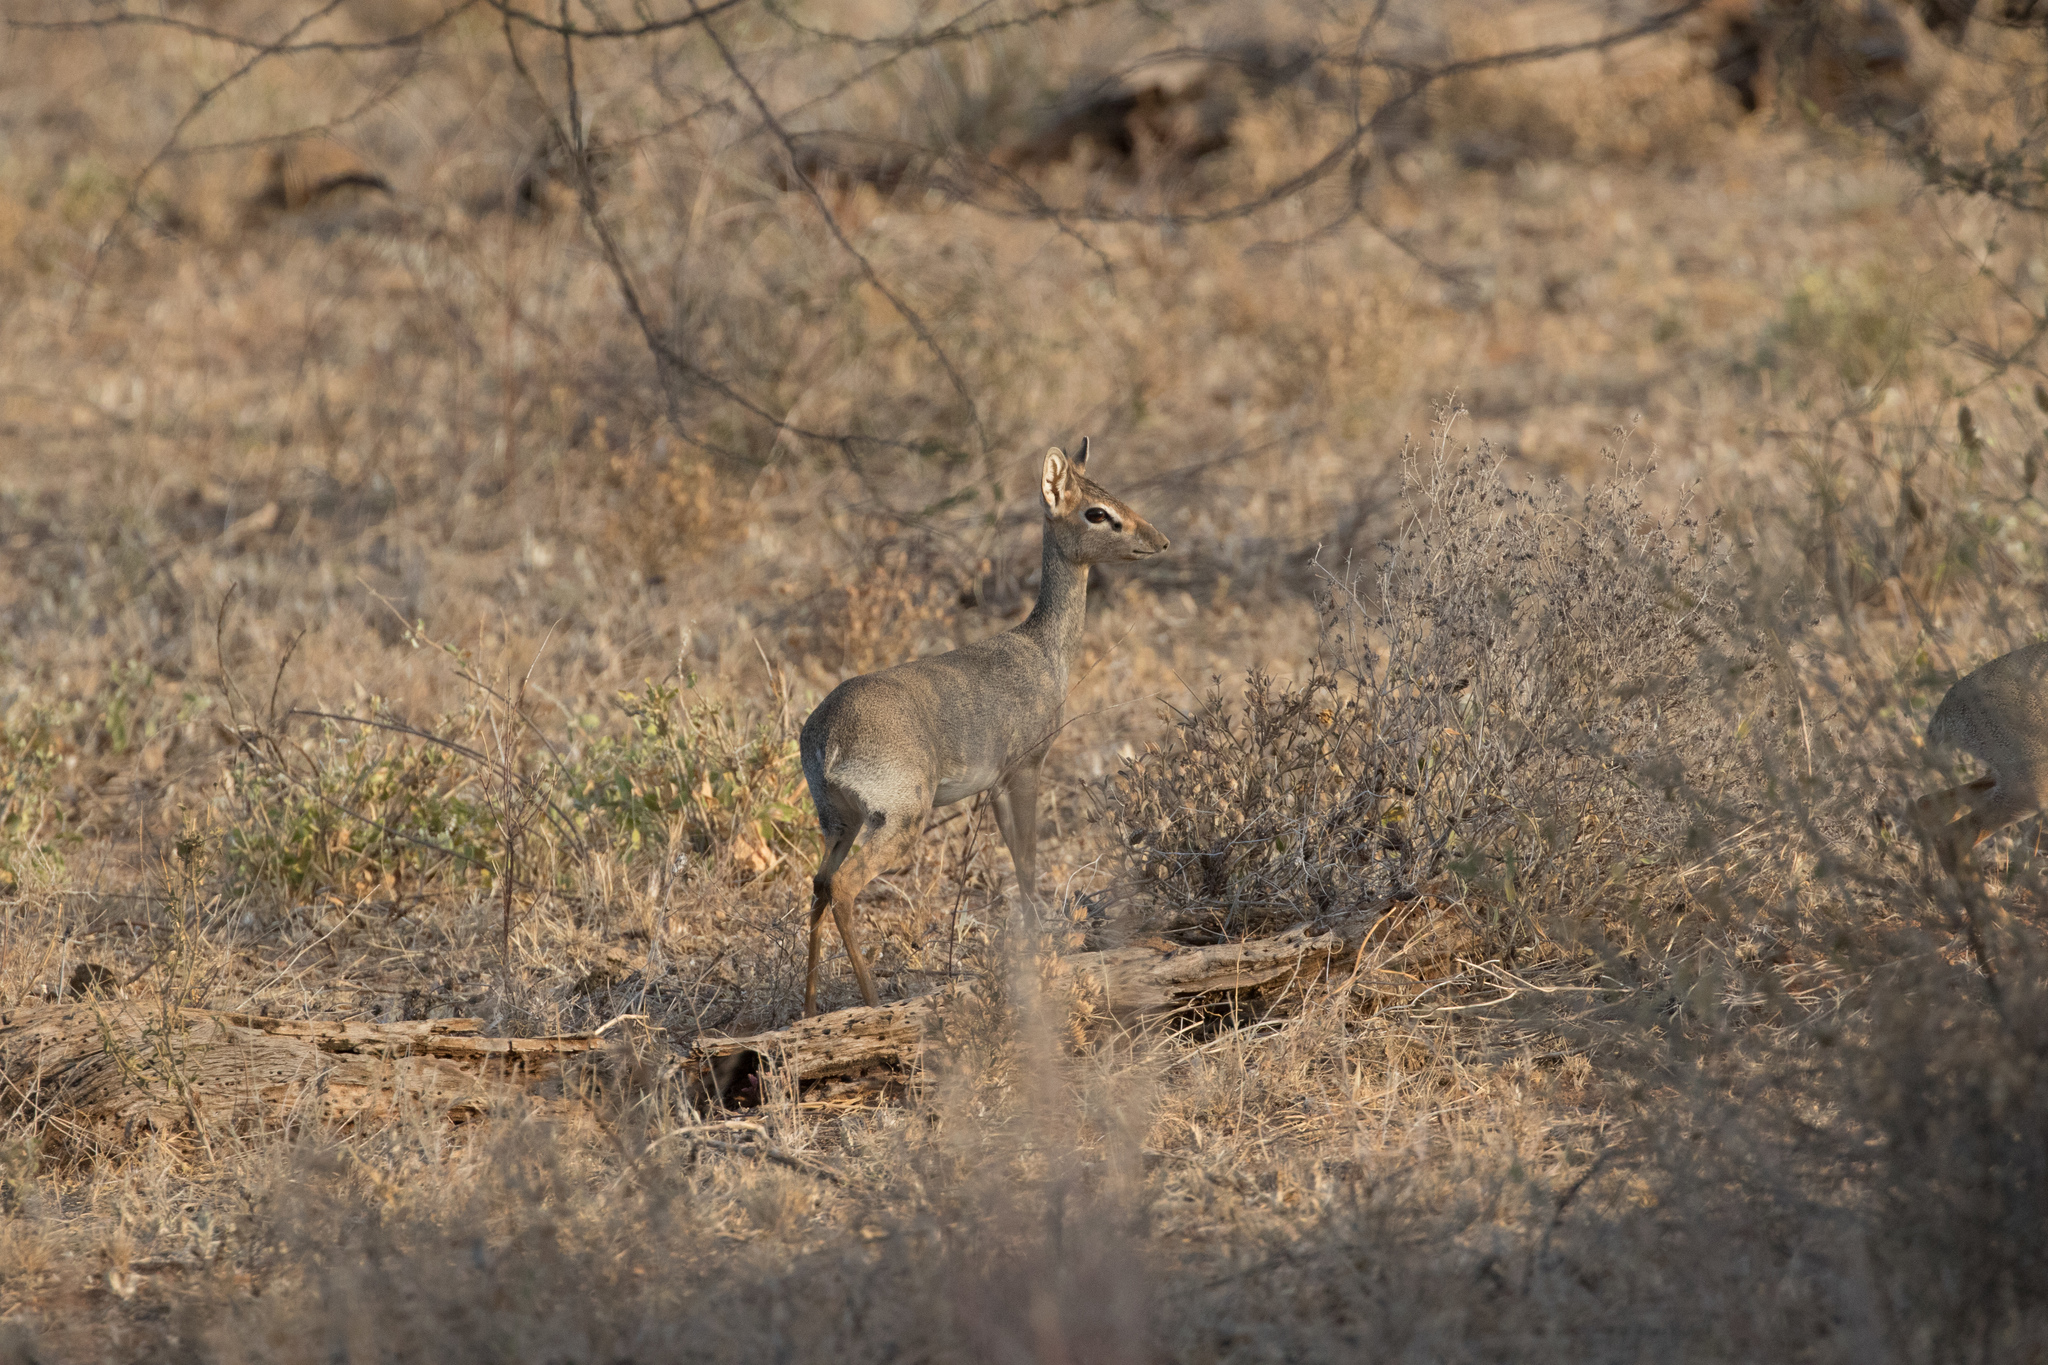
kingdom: Animalia
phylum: Chordata
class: Mammalia
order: Artiodactyla
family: Bovidae
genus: Madoqua
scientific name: Madoqua kirkii
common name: Kirk's dik-dik
